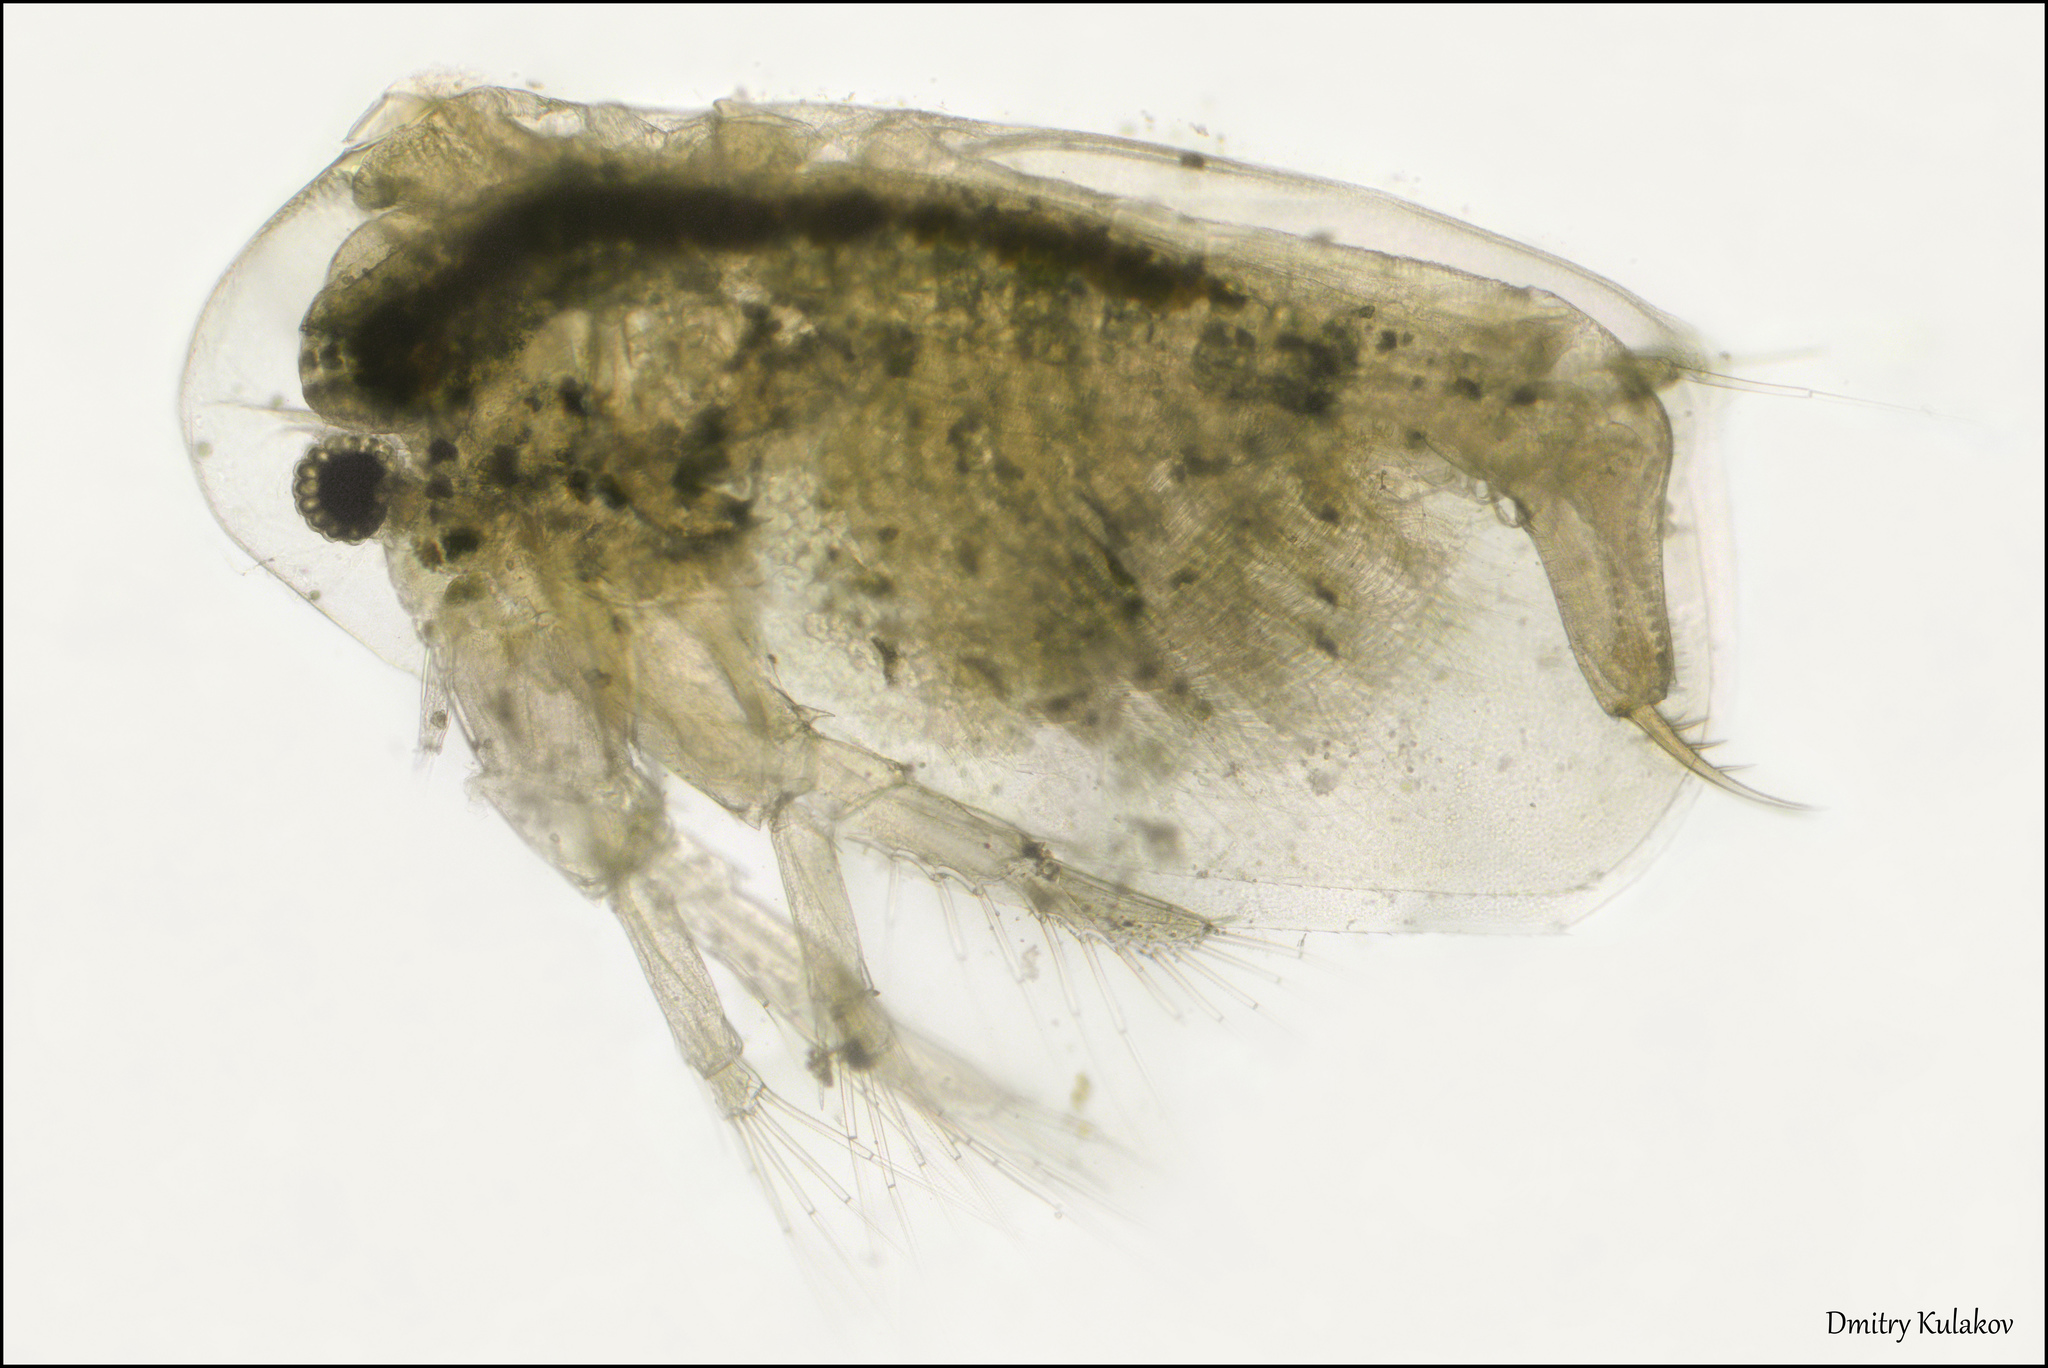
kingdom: Animalia
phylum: Arthropoda
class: Branchiopoda
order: Diplostraca
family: Sididae
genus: Sida
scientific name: Sida crystallina
